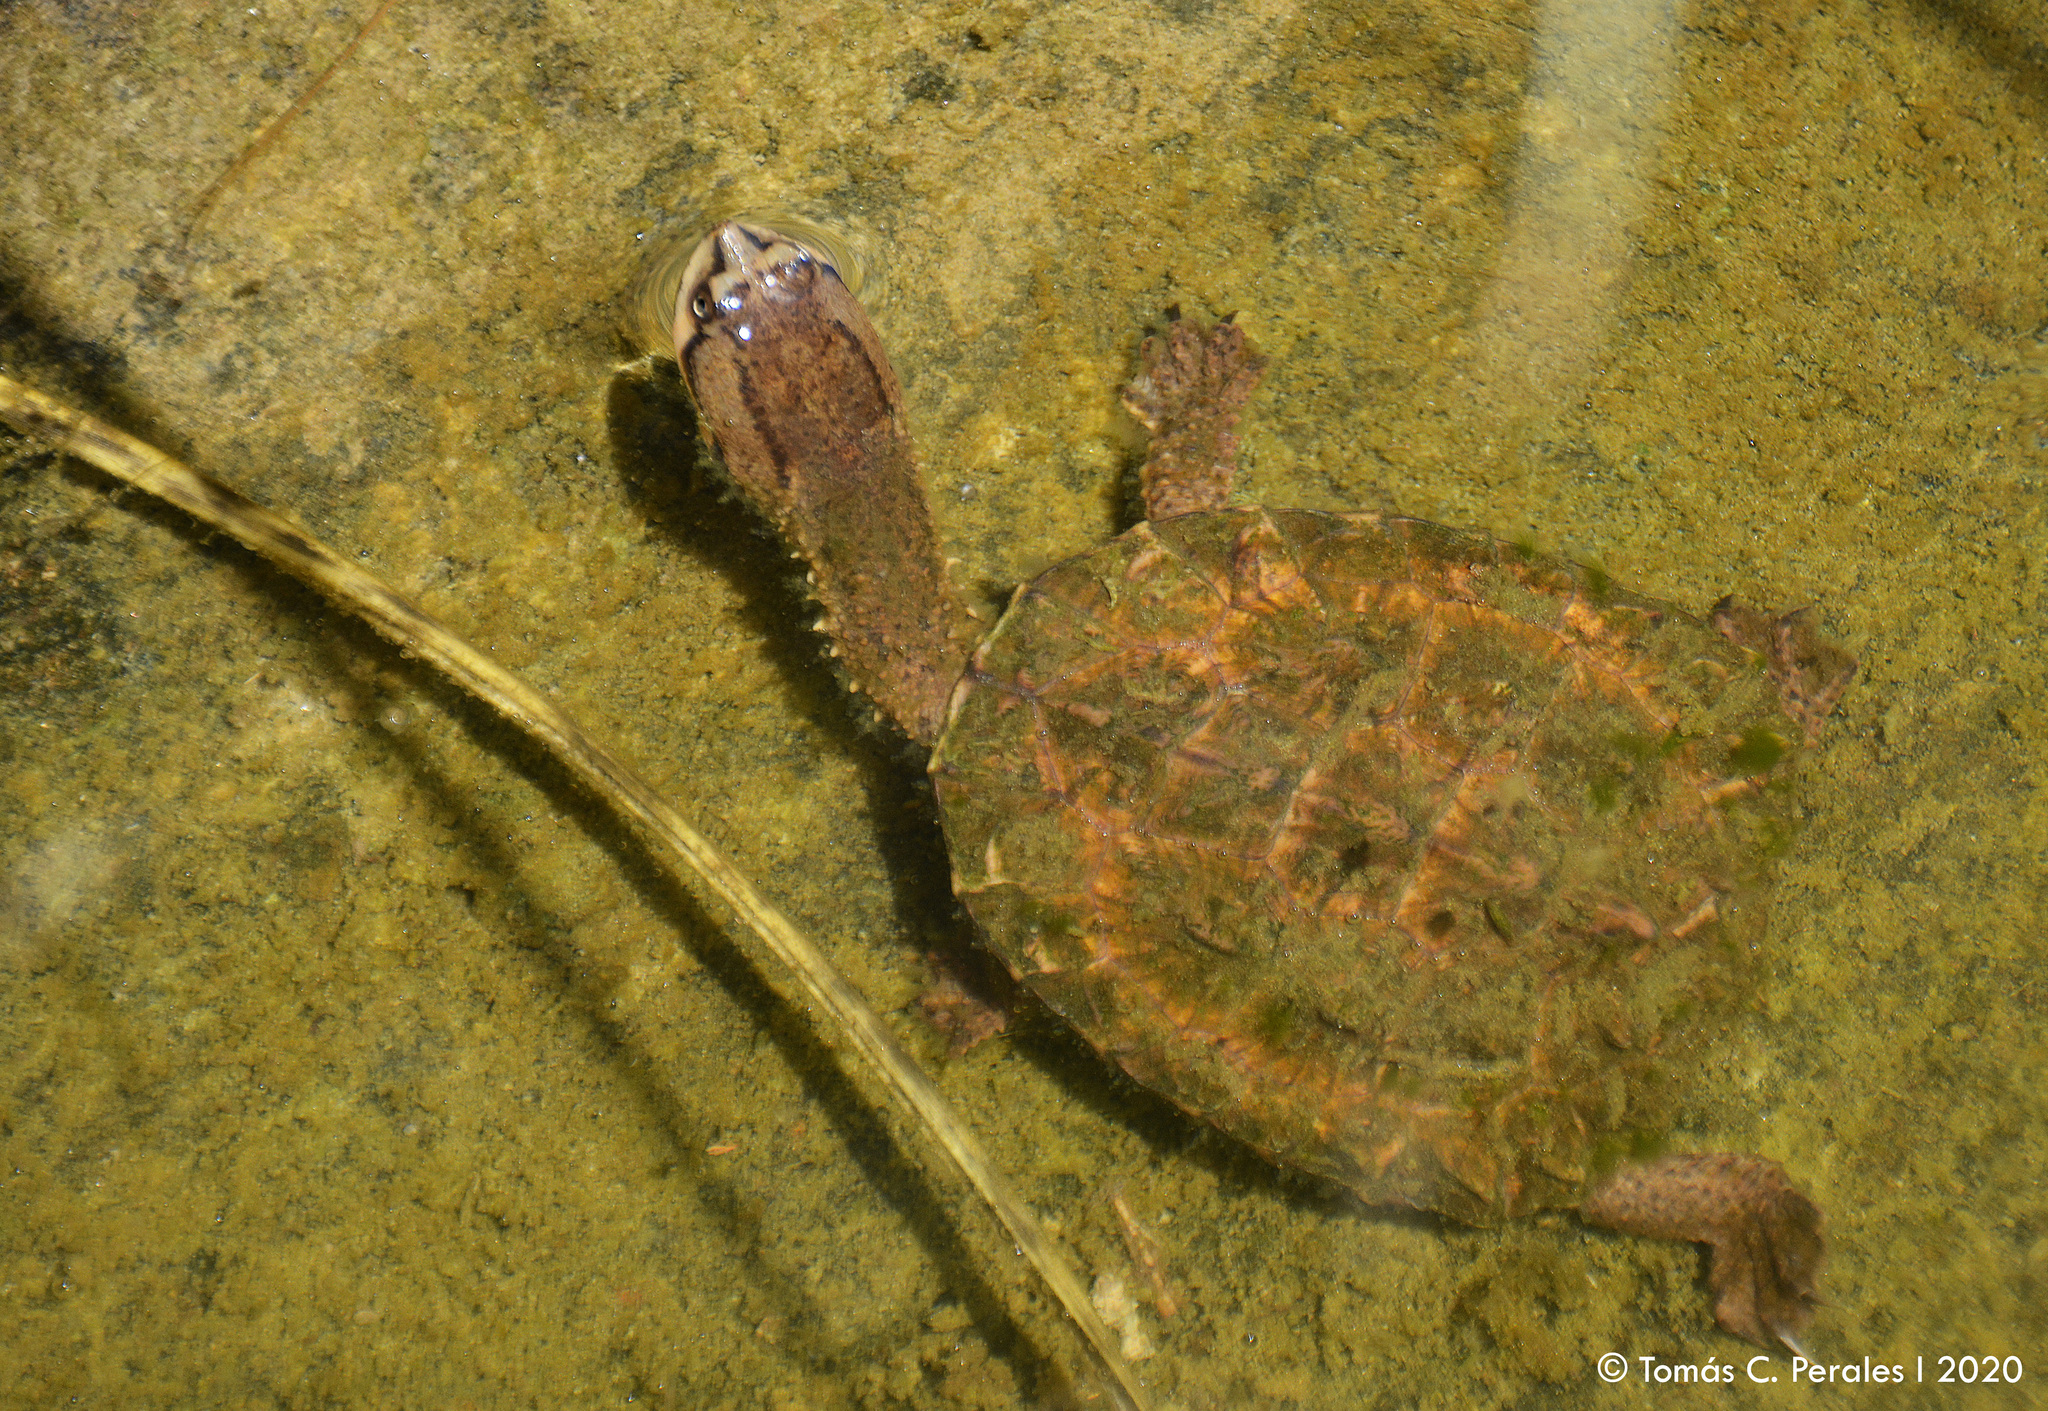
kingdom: Animalia
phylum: Chordata
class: Testudines
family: Chelidae
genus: Hydromedusa
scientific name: Hydromedusa tectifera
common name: Argentine snake-necked turtle
